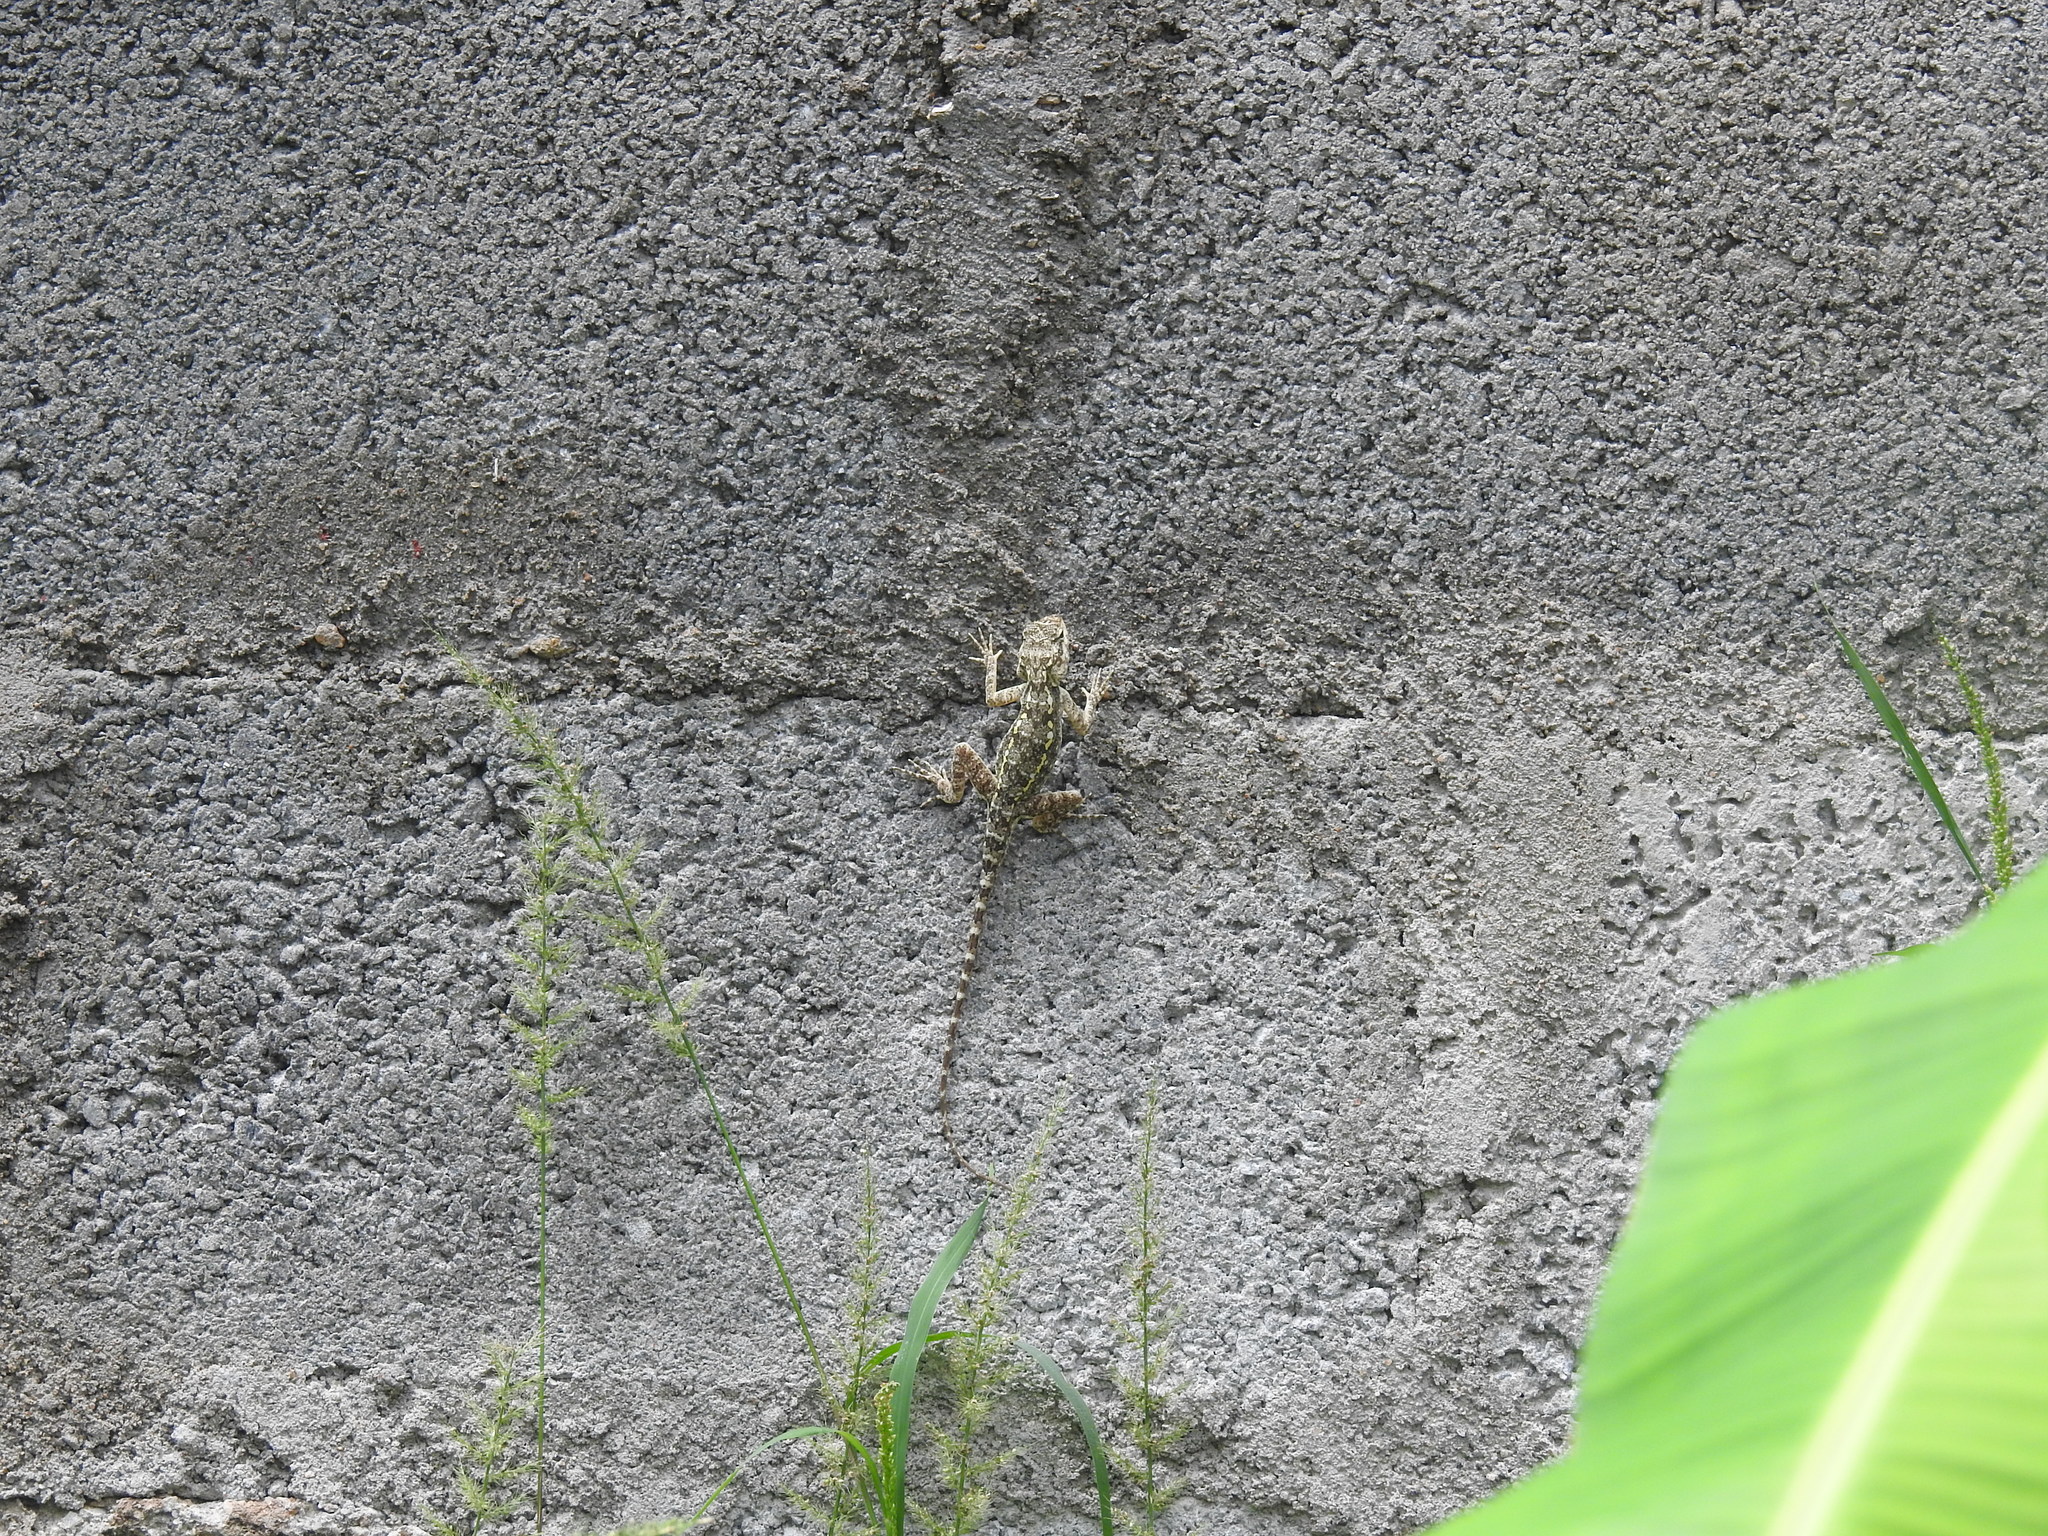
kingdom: Animalia
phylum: Chordata
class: Squamata
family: Agamidae
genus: Psammophilus
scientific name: Psammophilus dorsalis
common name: South indian rock agama
